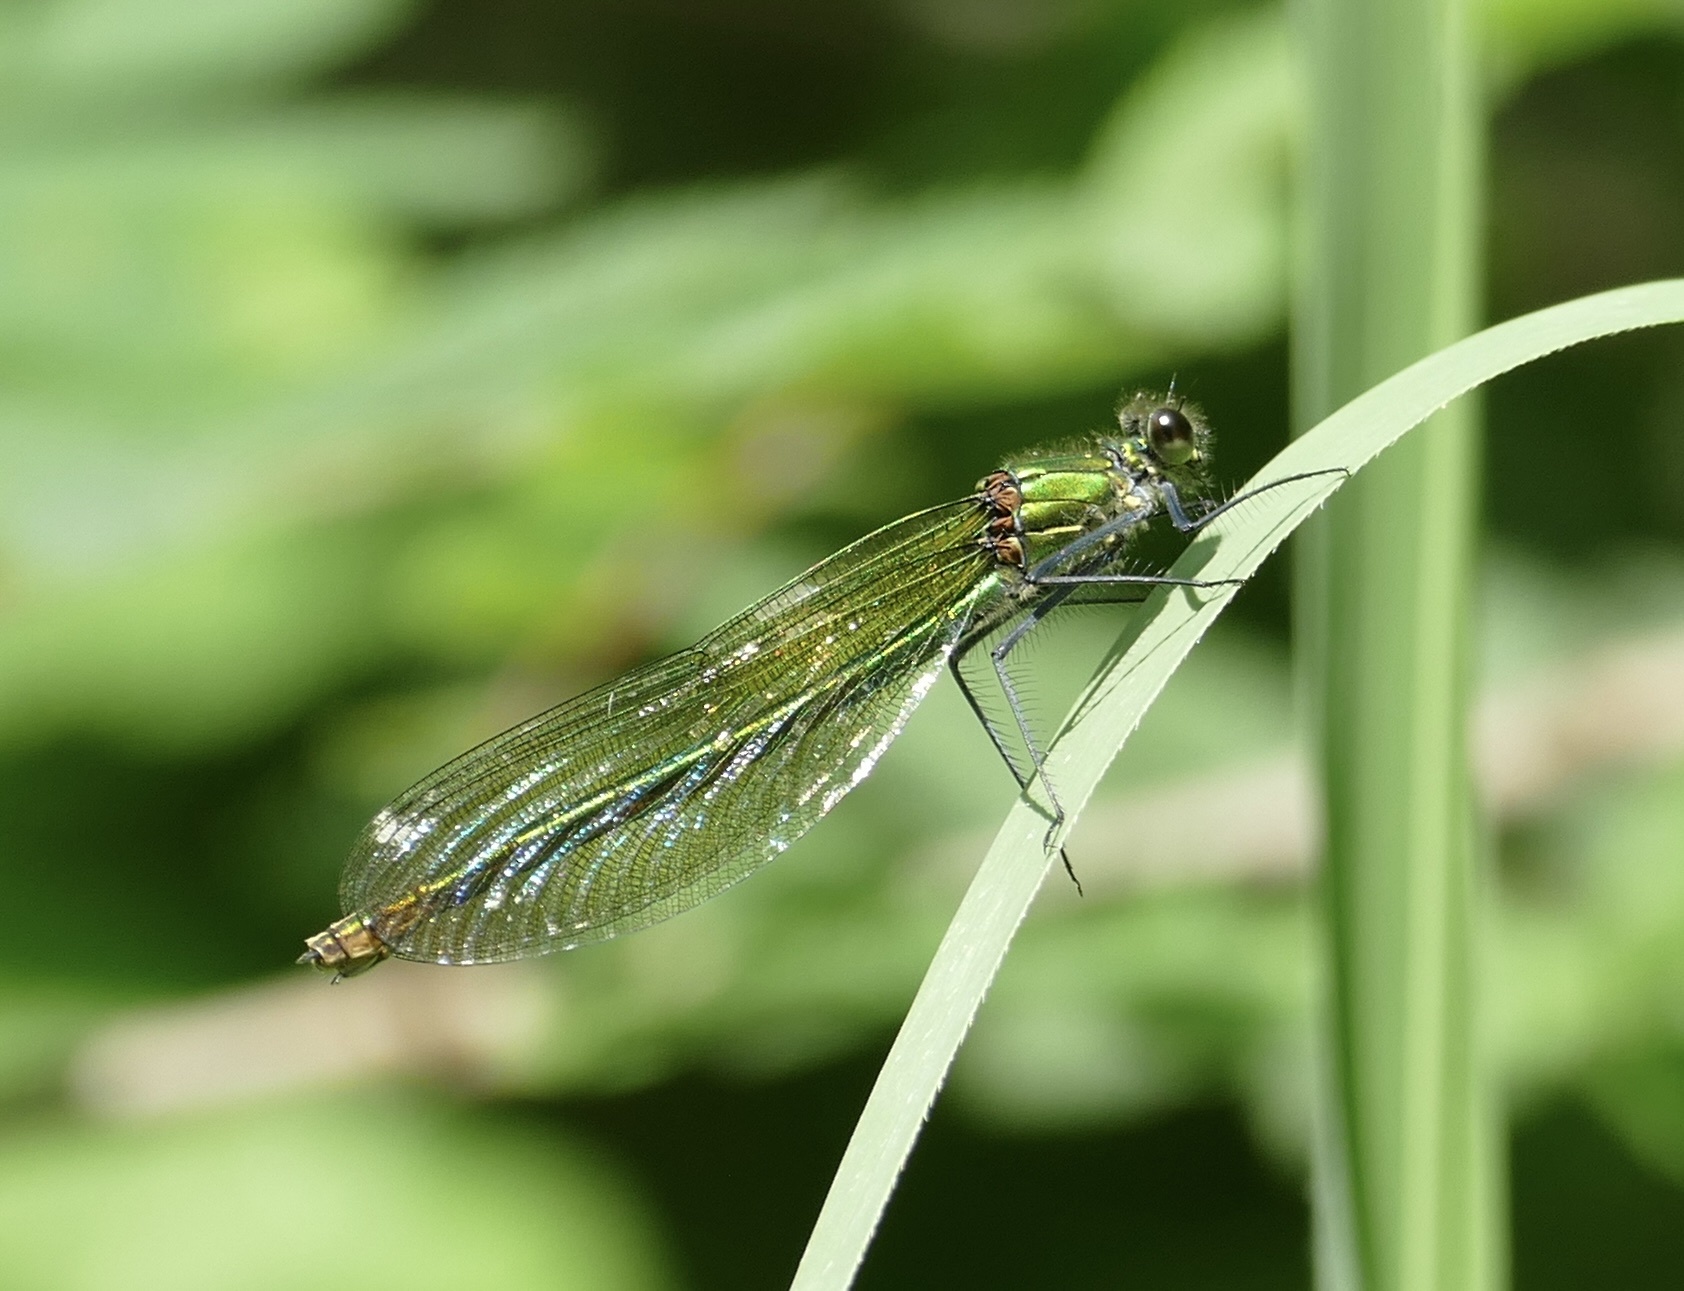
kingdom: Animalia
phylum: Arthropoda
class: Insecta
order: Odonata
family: Calopterygidae
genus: Calopteryx
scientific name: Calopteryx splendens
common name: Banded demoiselle
